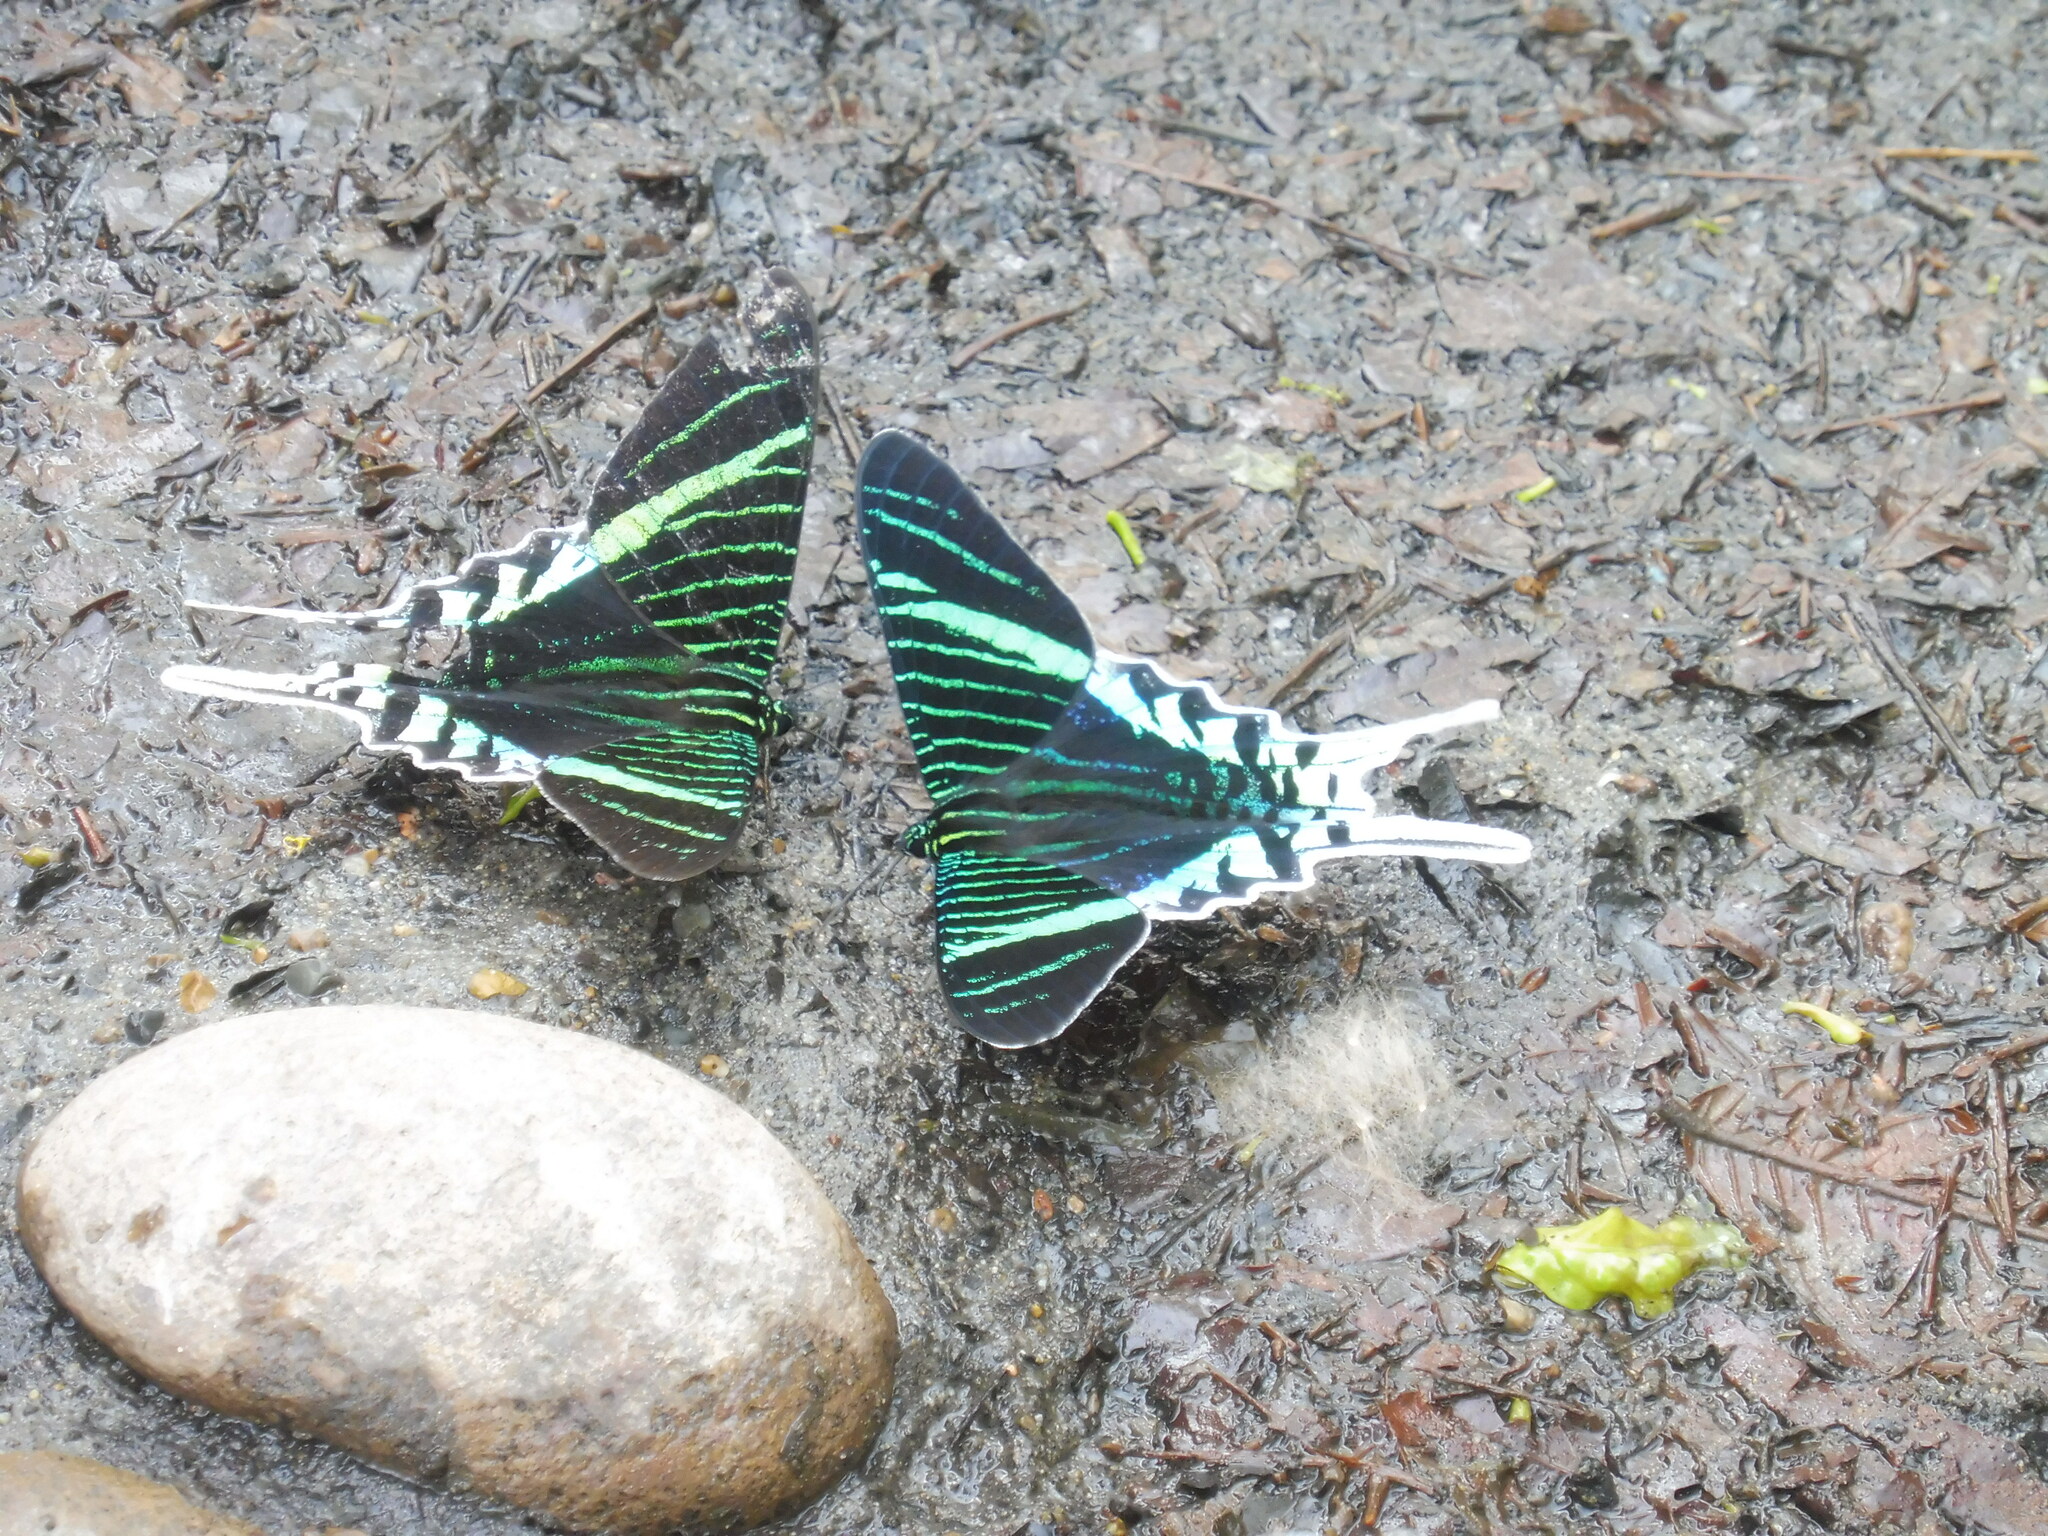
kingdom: Animalia
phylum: Arthropoda
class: Insecta
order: Lepidoptera
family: Uraniidae
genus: Urania
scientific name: Urania leilus
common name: Peacock moth
